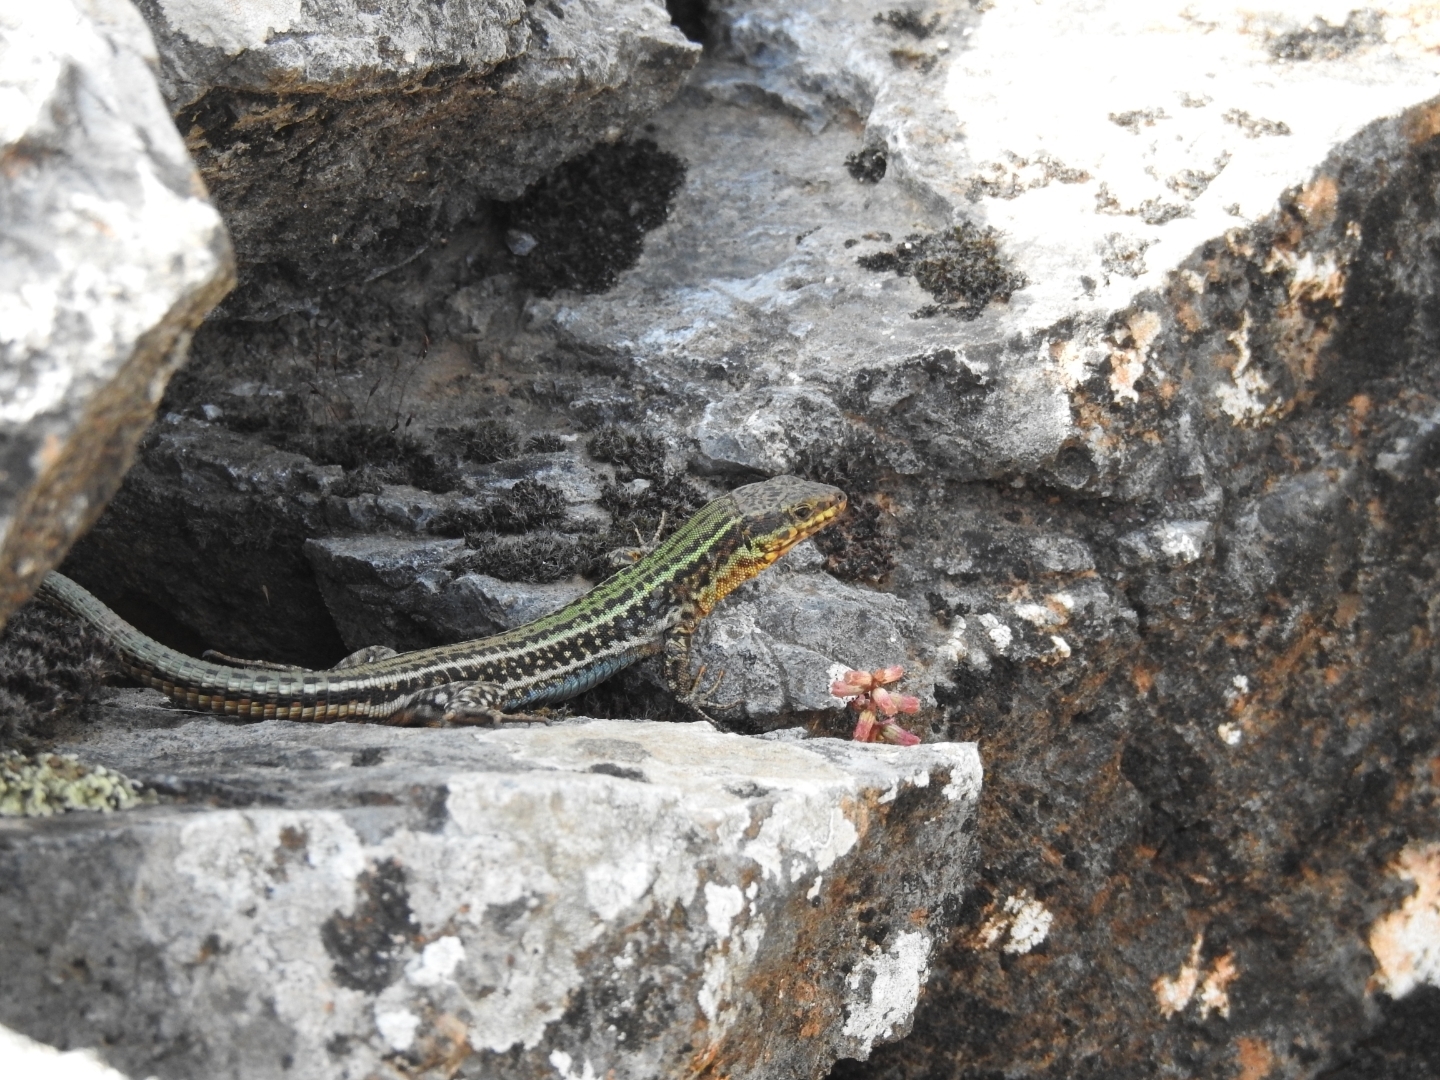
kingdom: Animalia
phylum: Chordata
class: Squamata
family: Lacertidae
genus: Podarcis
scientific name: Podarcis cretensis
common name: Cretan wall lizard
